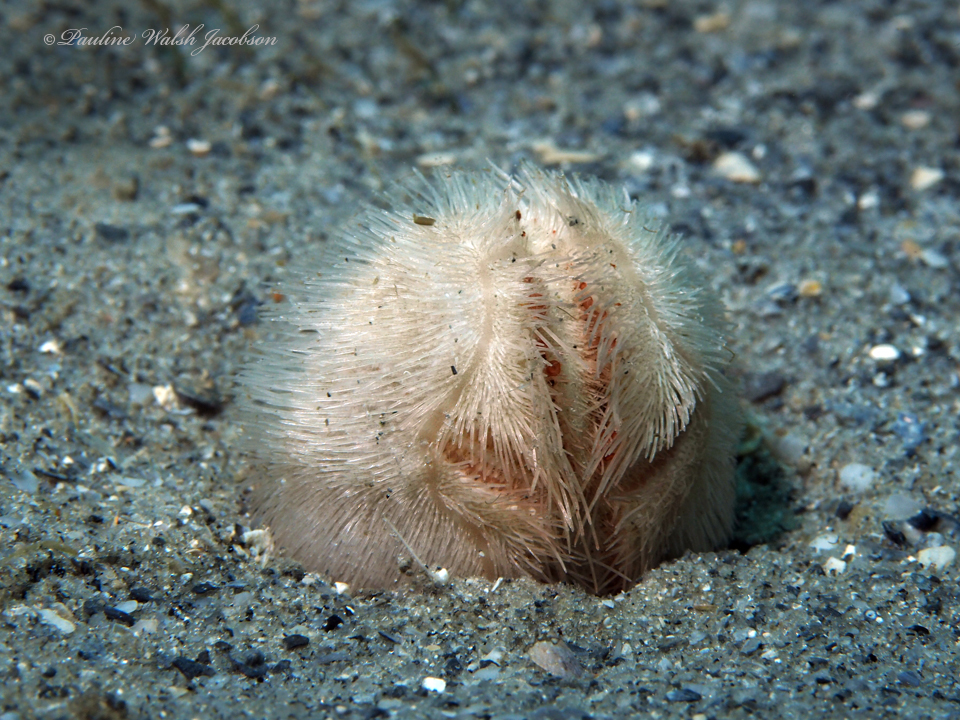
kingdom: Animalia
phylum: Echinodermata
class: Echinoidea
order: Spatangoida
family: Brissidae
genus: Brissopsis
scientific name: Brissopsis atlantica
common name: Atlantic heart sea urchin
